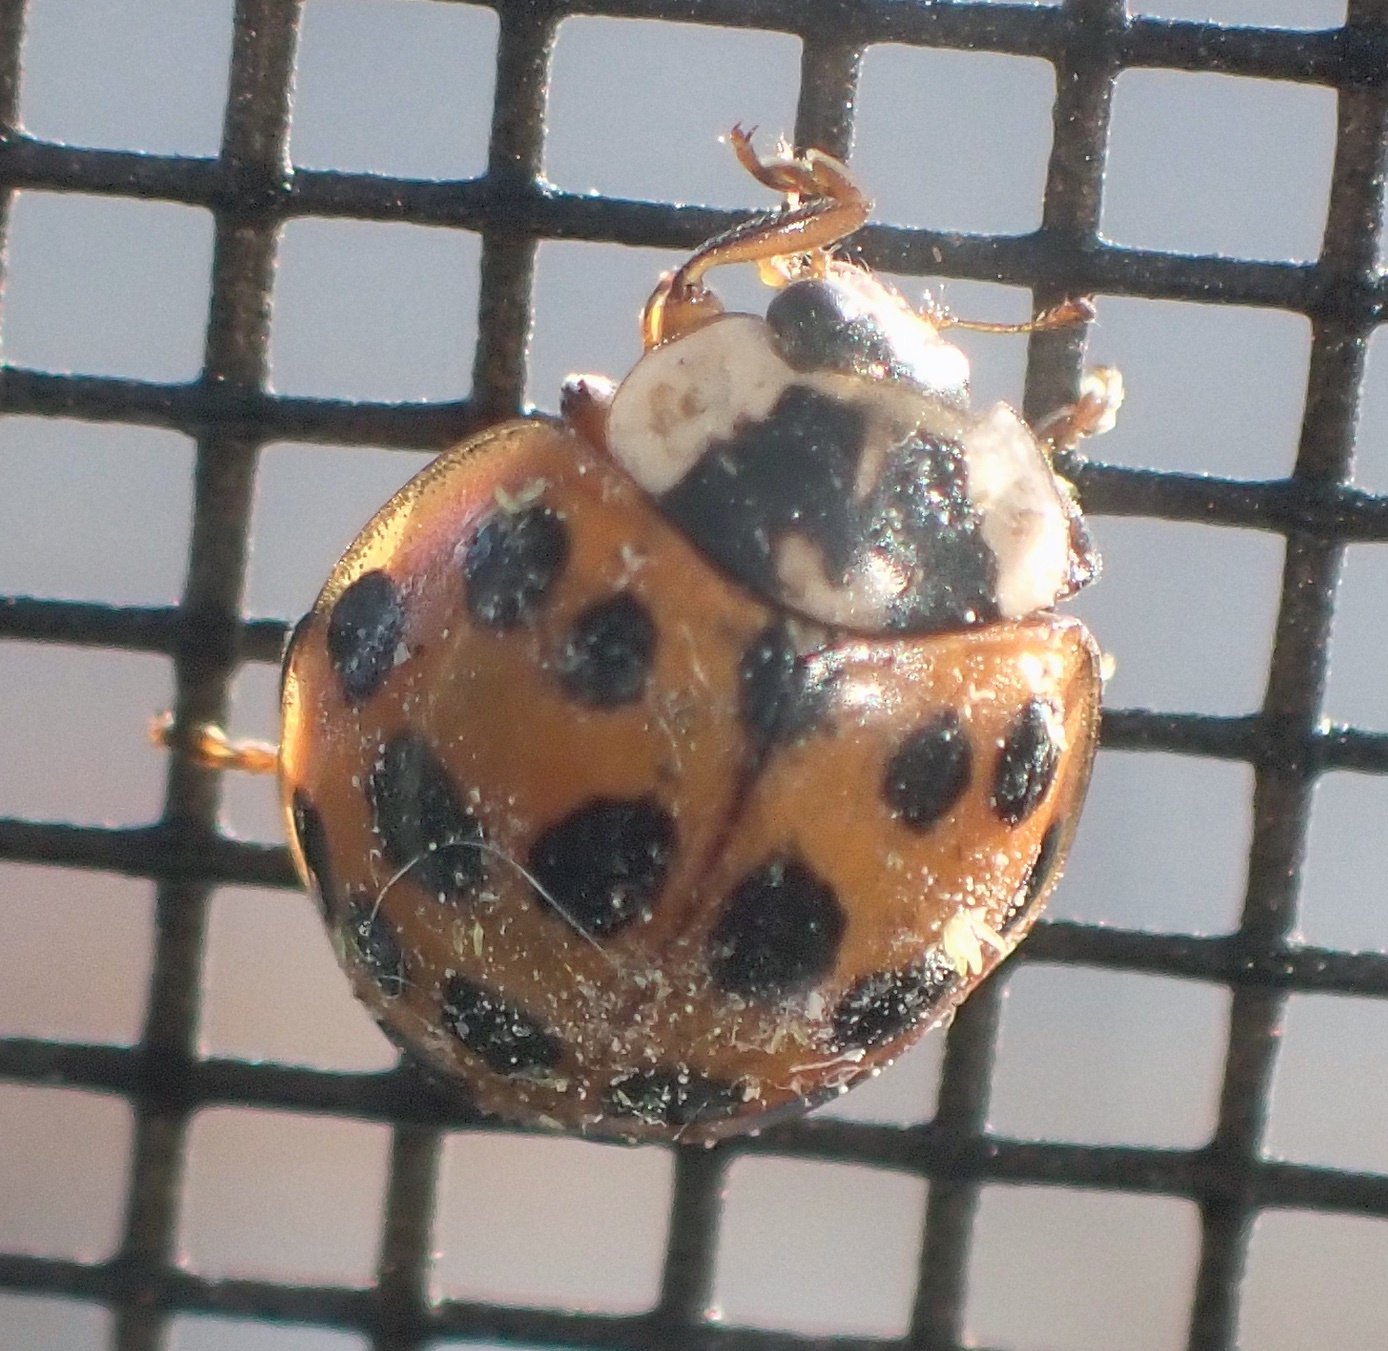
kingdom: Animalia
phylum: Arthropoda
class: Insecta
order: Coleoptera
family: Coccinellidae
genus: Harmonia
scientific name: Harmonia axyridis
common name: Harlequin ladybird
